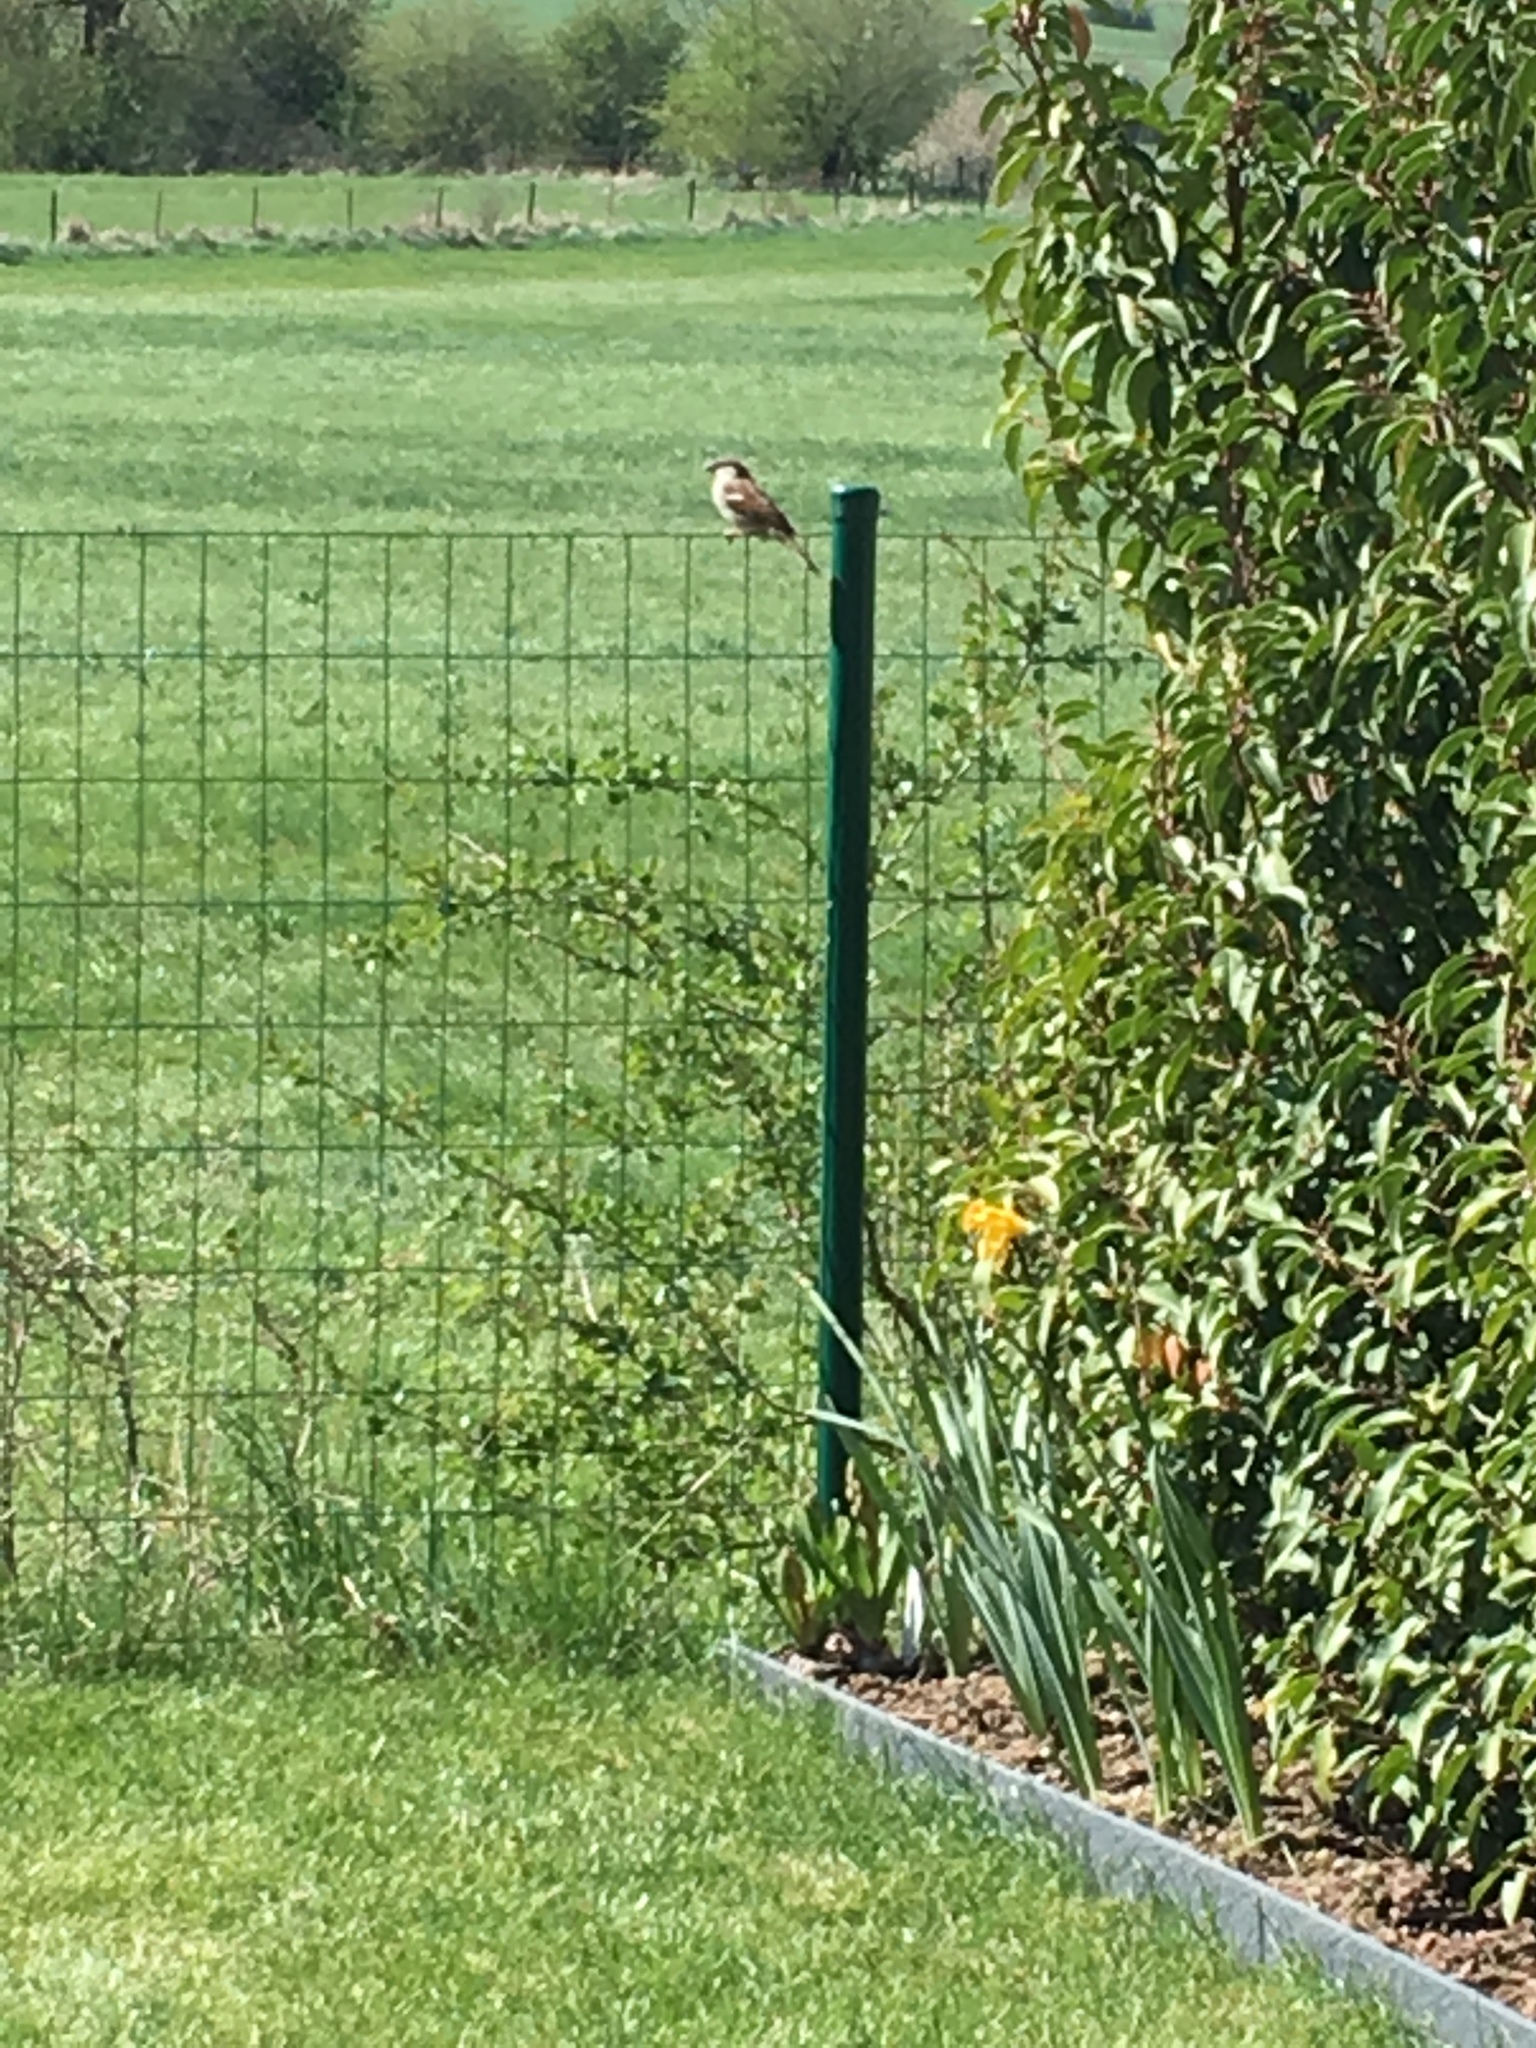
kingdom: Animalia
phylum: Chordata
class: Aves
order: Passeriformes
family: Passeridae
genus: Passer
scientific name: Passer domesticus
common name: House sparrow
